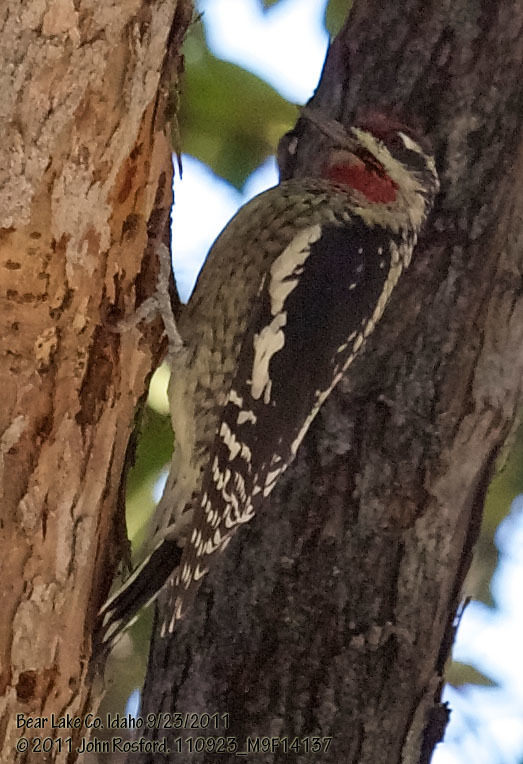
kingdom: Animalia
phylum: Chordata
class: Aves
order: Piciformes
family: Picidae
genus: Sphyrapicus
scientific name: Sphyrapicus nuchalis
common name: Red-naped sapsucker
